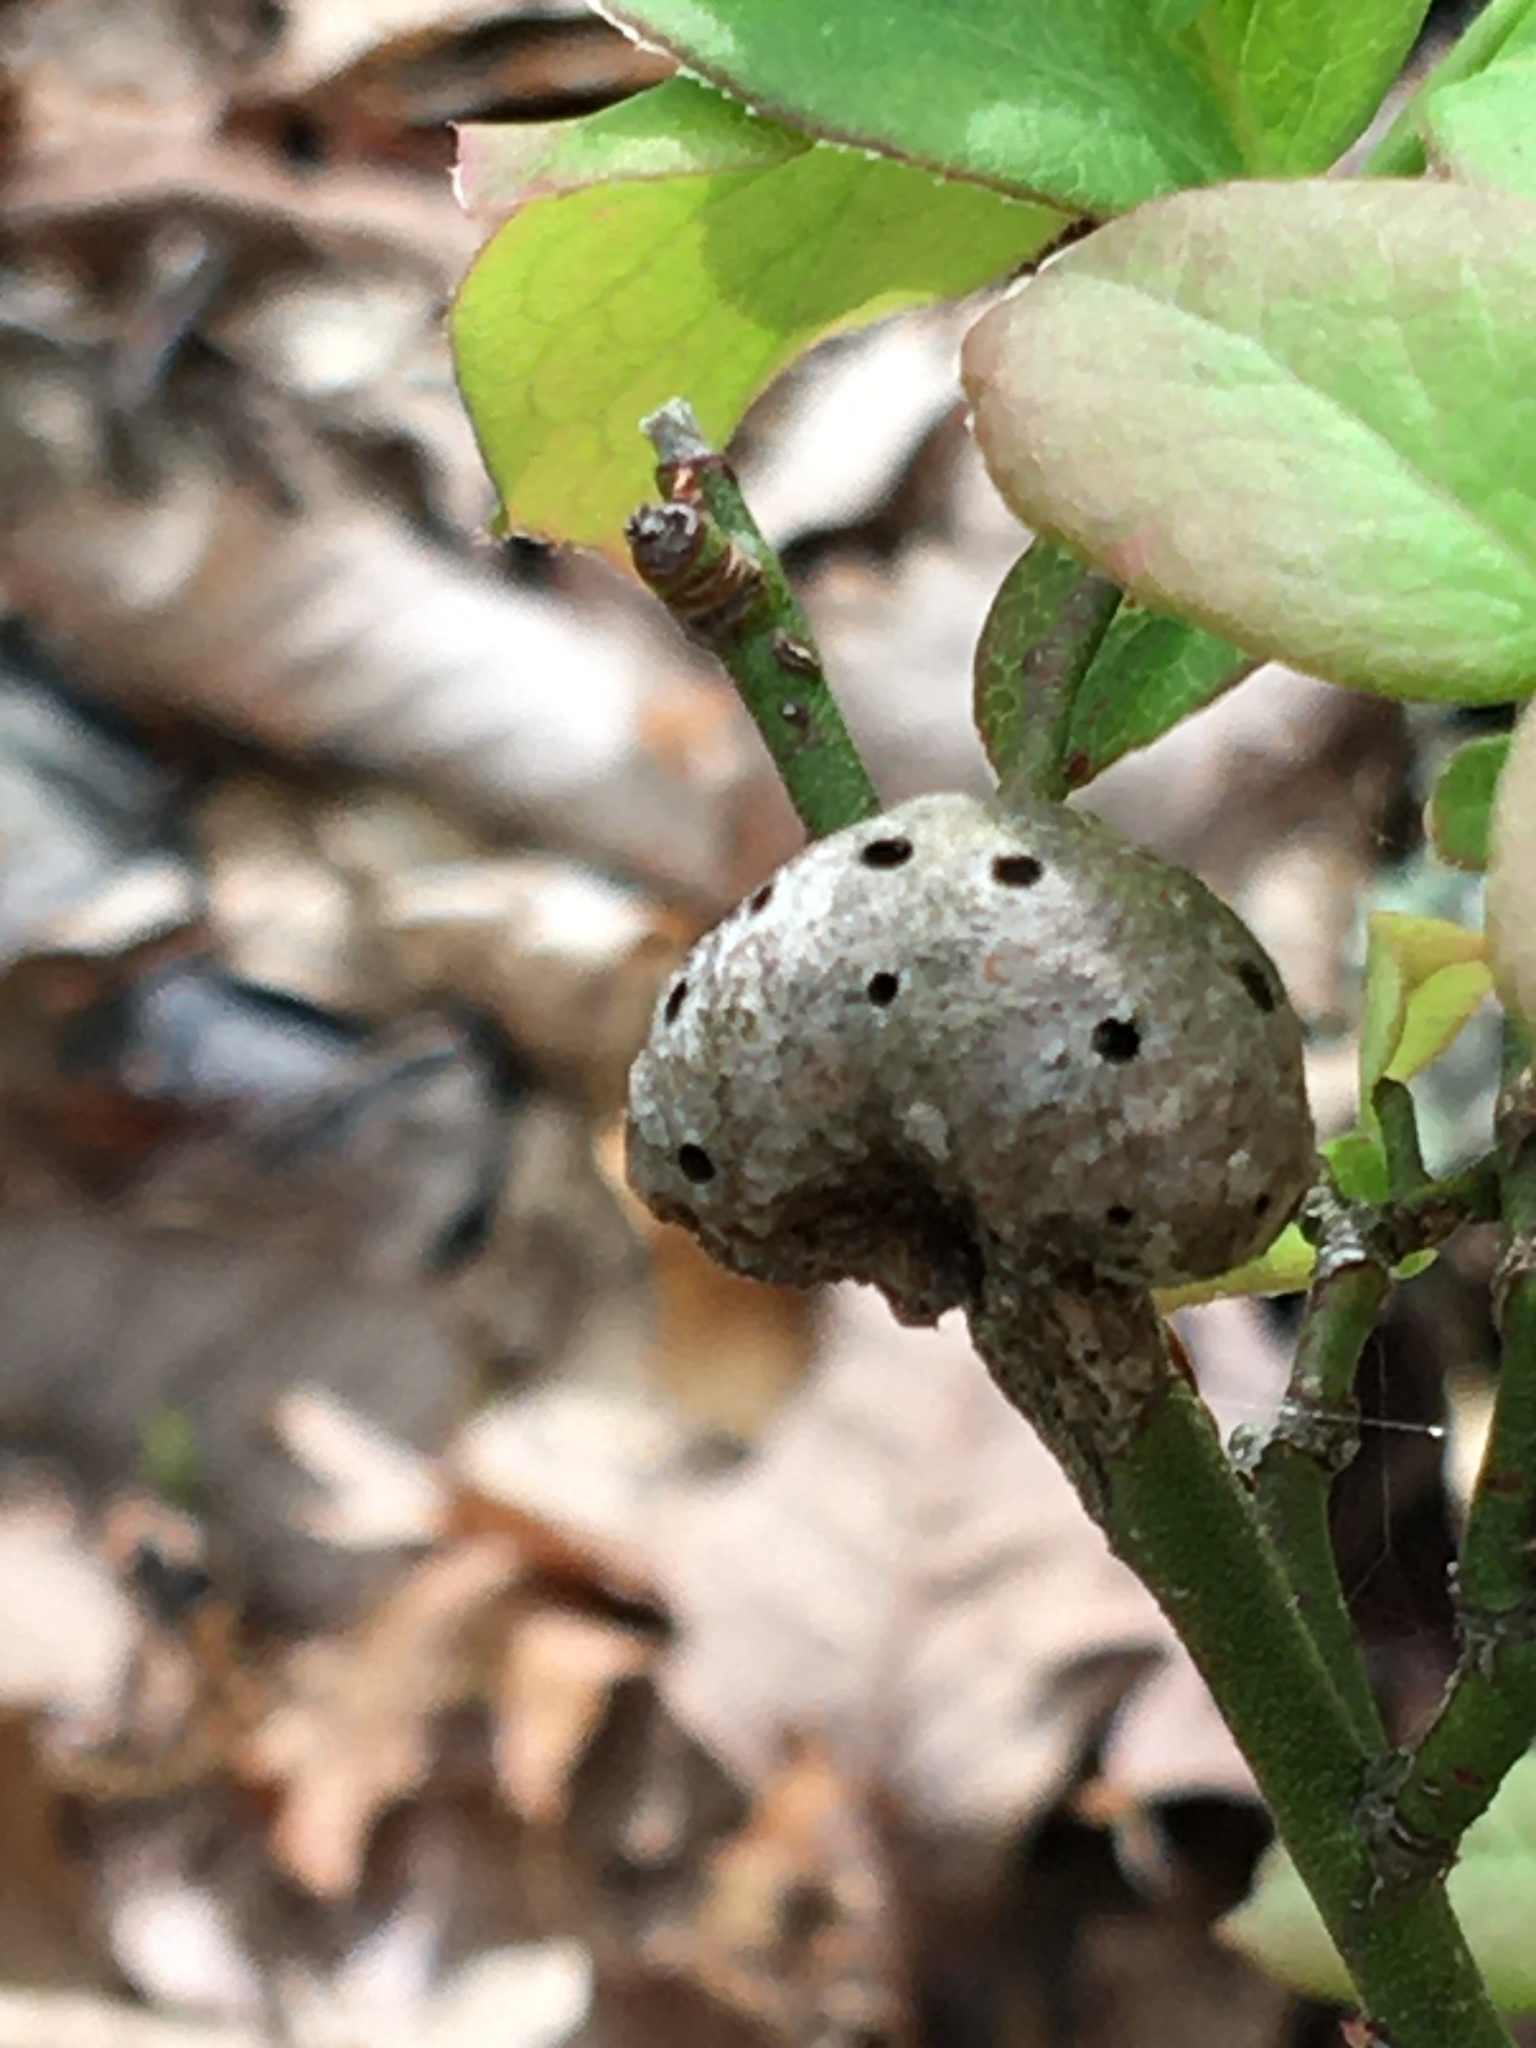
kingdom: Animalia
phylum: Arthropoda
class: Insecta
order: Hymenoptera
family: Pteromalidae
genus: Hemadas
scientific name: Hemadas nubilipennis
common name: Blueberry stem gall wasp
